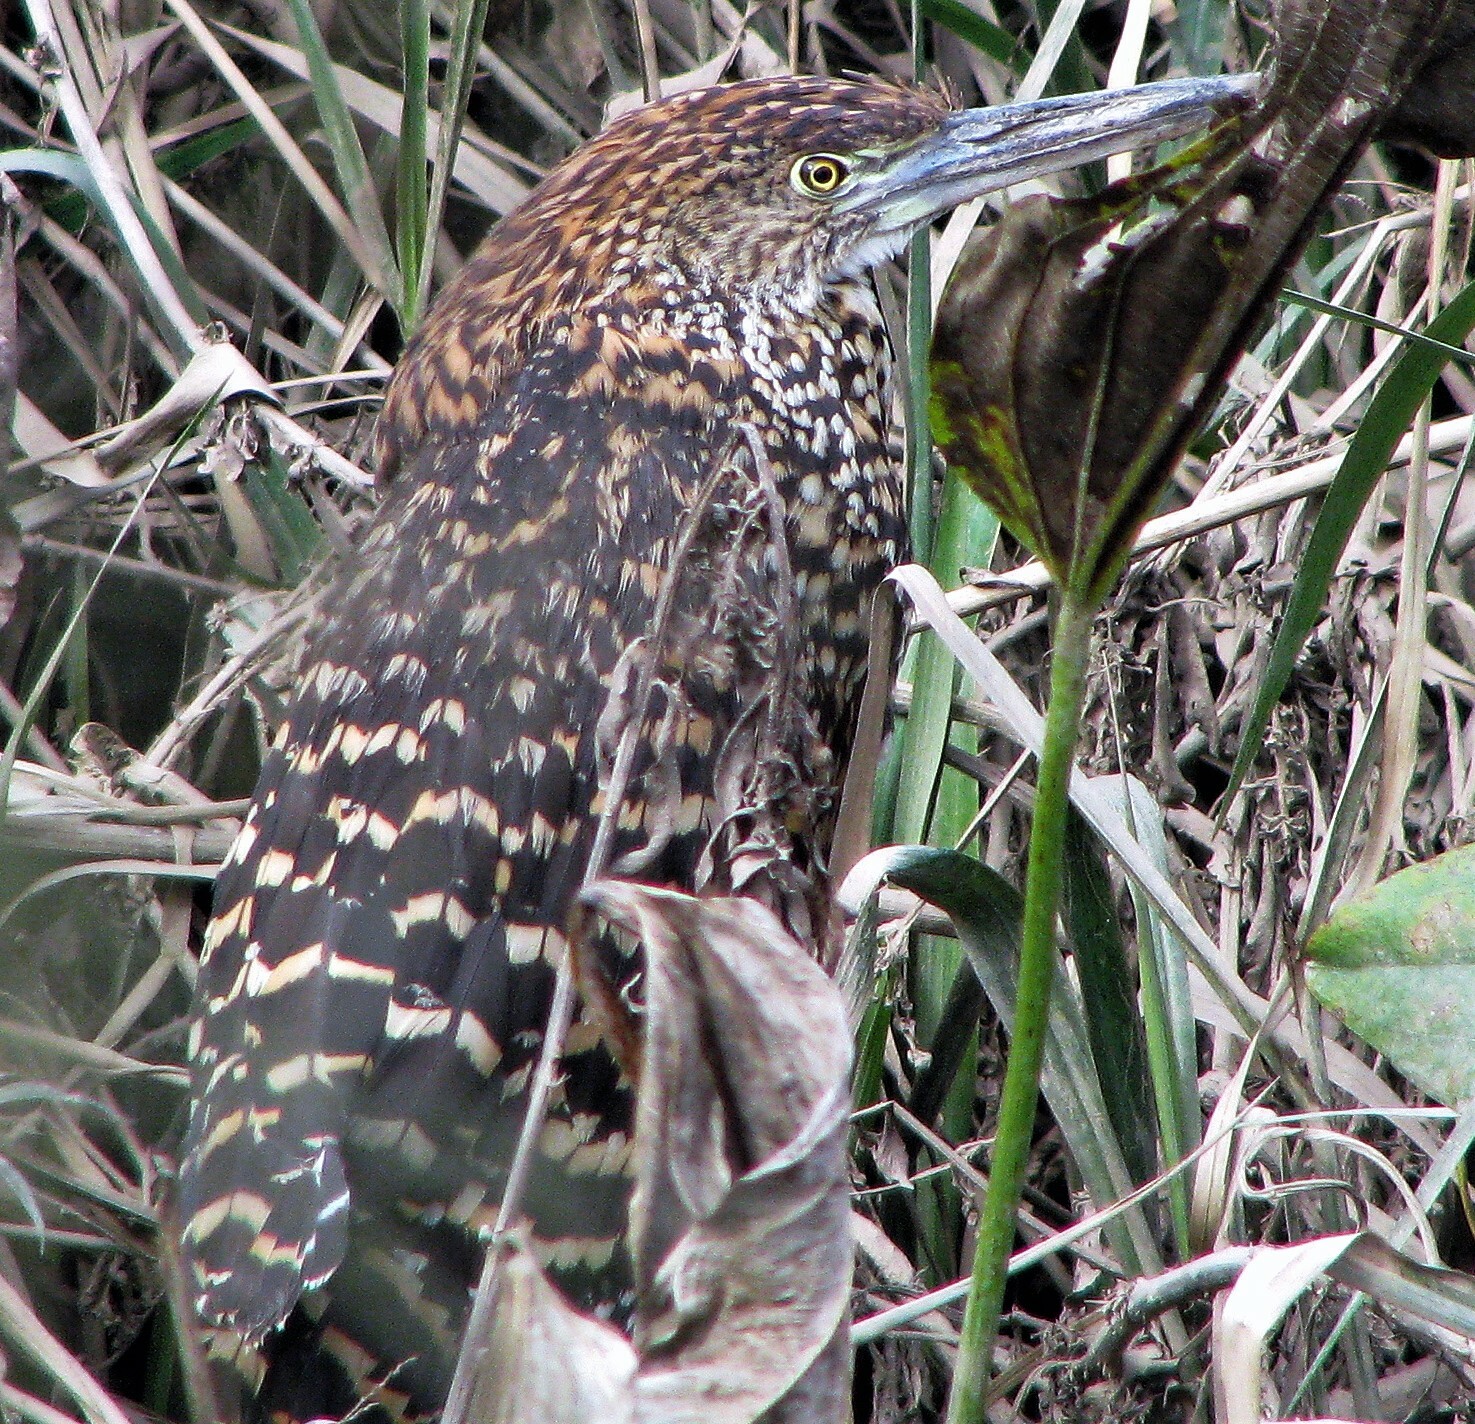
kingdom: Animalia
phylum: Chordata
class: Aves
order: Pelecaniformes
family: Ardeidae
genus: Tigrisoma
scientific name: Tigrisoma lineatum
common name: Rufescent tiger-heron
